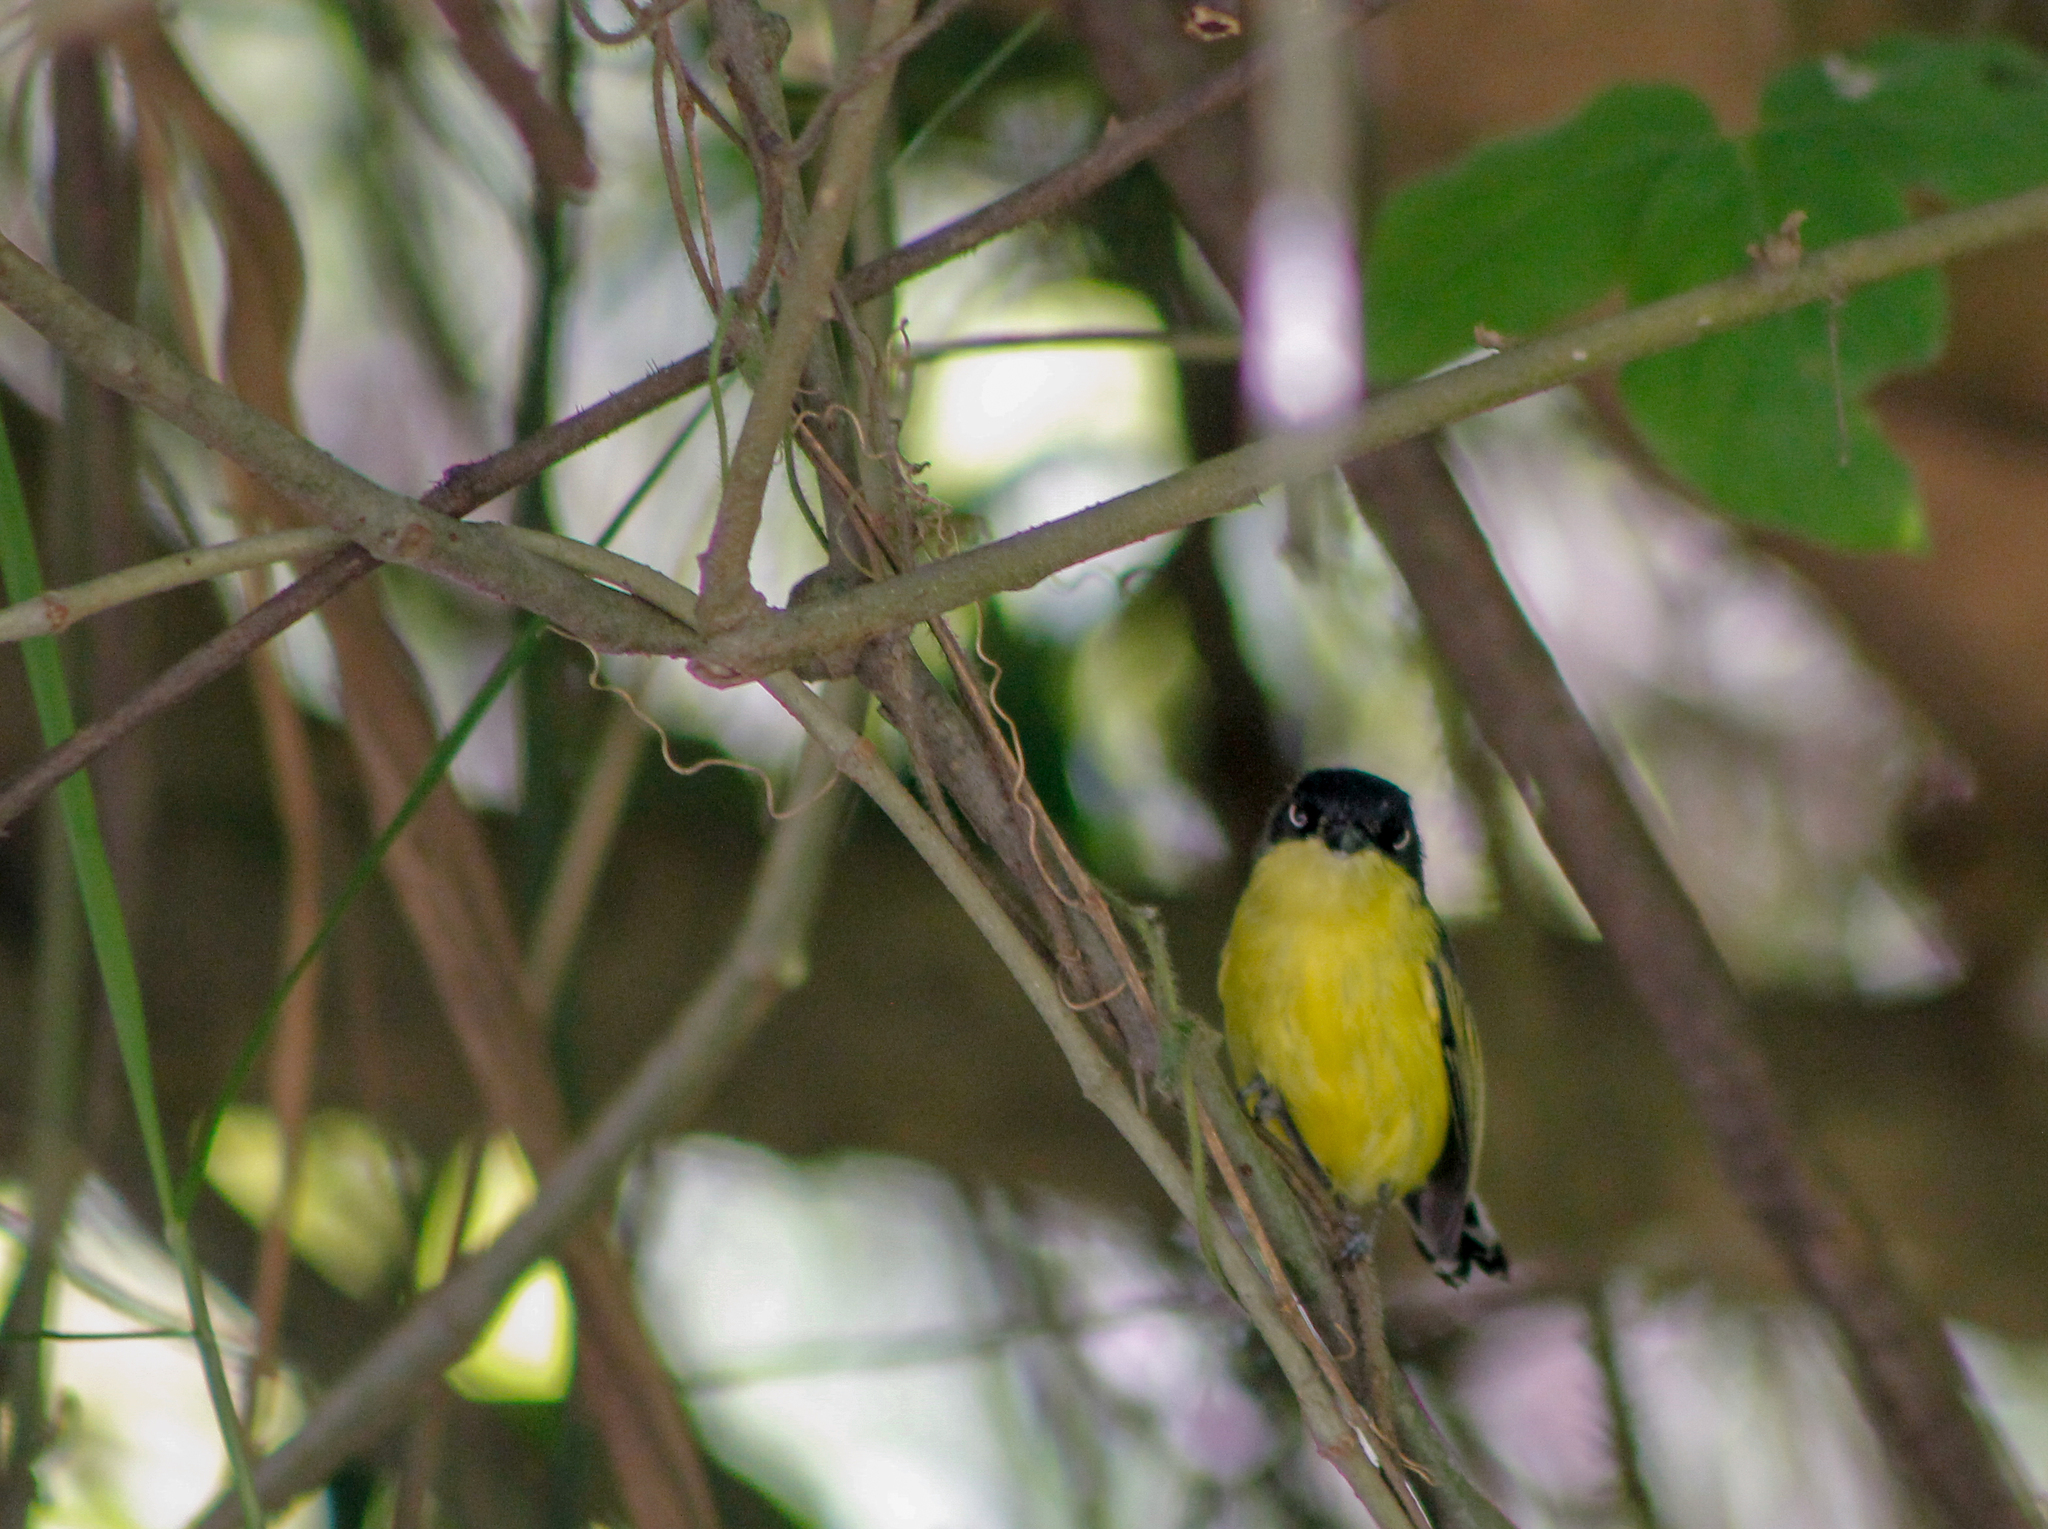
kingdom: Animalia
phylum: Chordata
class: Aves
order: Passeriformes
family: Tyrannidae
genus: Todirostrum
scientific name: Todirostrum cinereum
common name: Common tody-flycatcher
